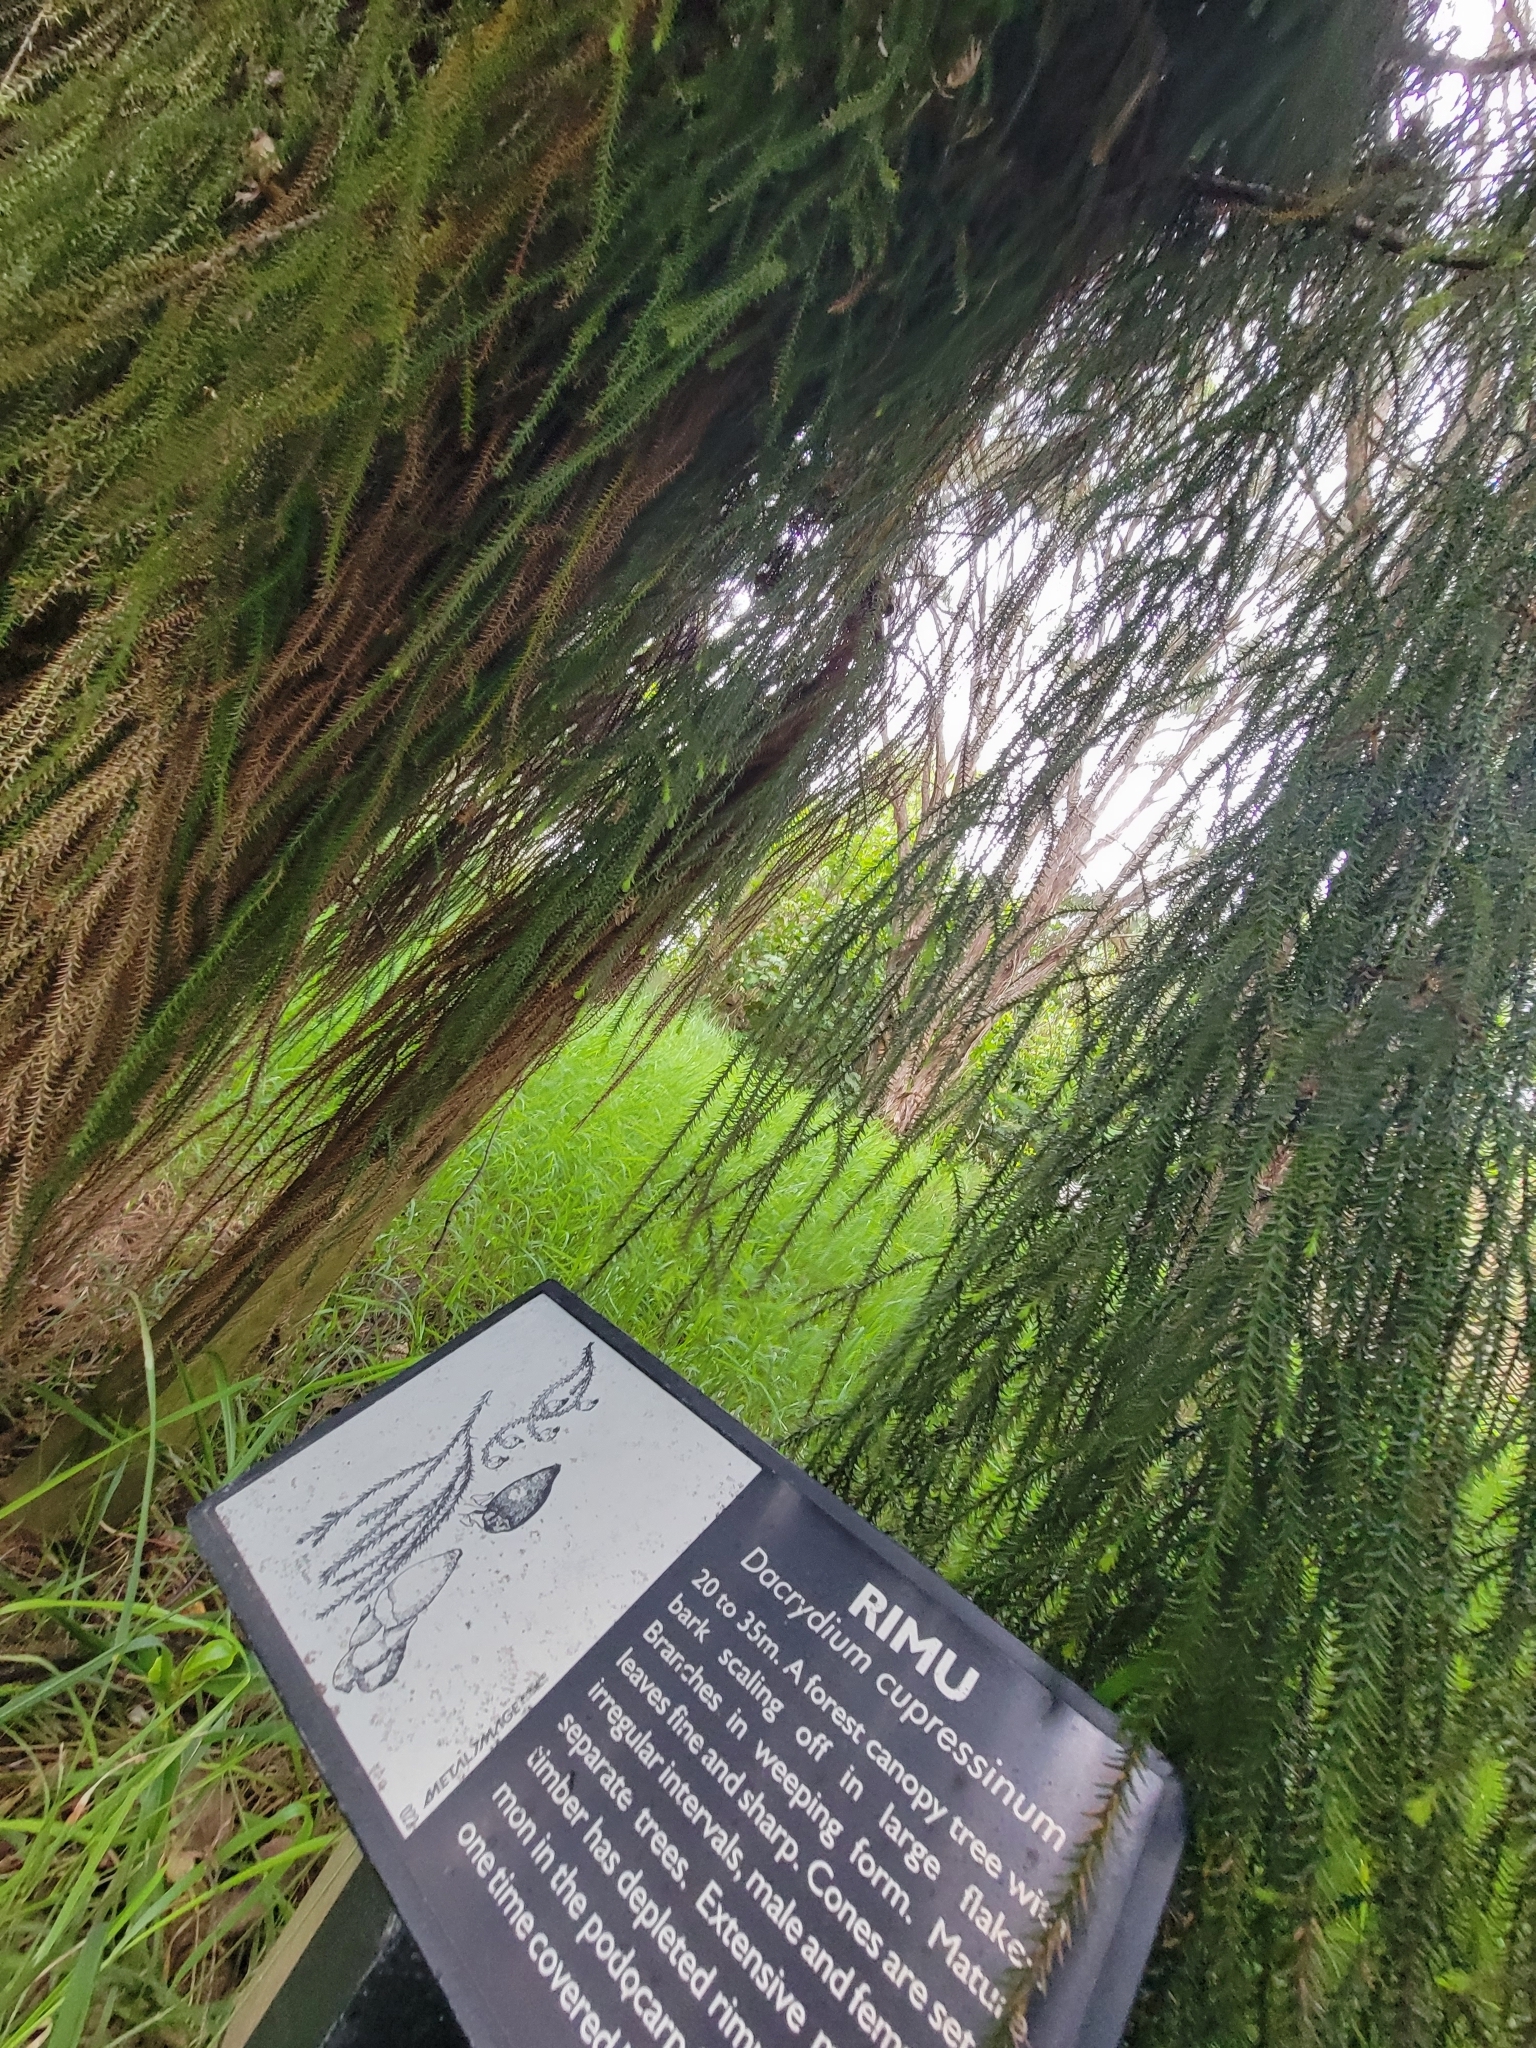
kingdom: Plantae
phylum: Tracheophyta
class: Pinopsida
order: Pinales
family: Podocarpaceae
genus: Dacrydium
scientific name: Dacrydium cupressinum
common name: Red pine
